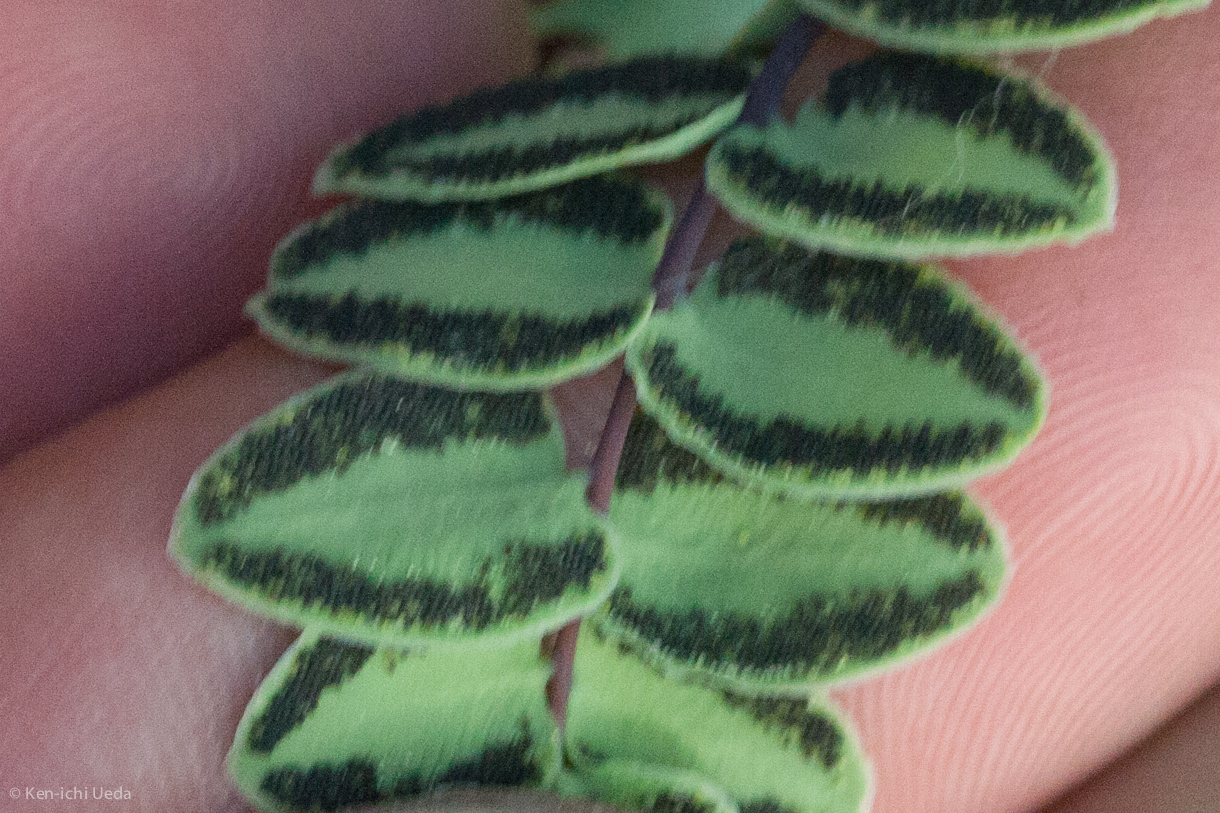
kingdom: Plantae
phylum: Tracheophyta
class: Polypodiopsida
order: Polypodiales
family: Pteridaceae
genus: Pellaea
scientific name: Pellaea bridgesii
